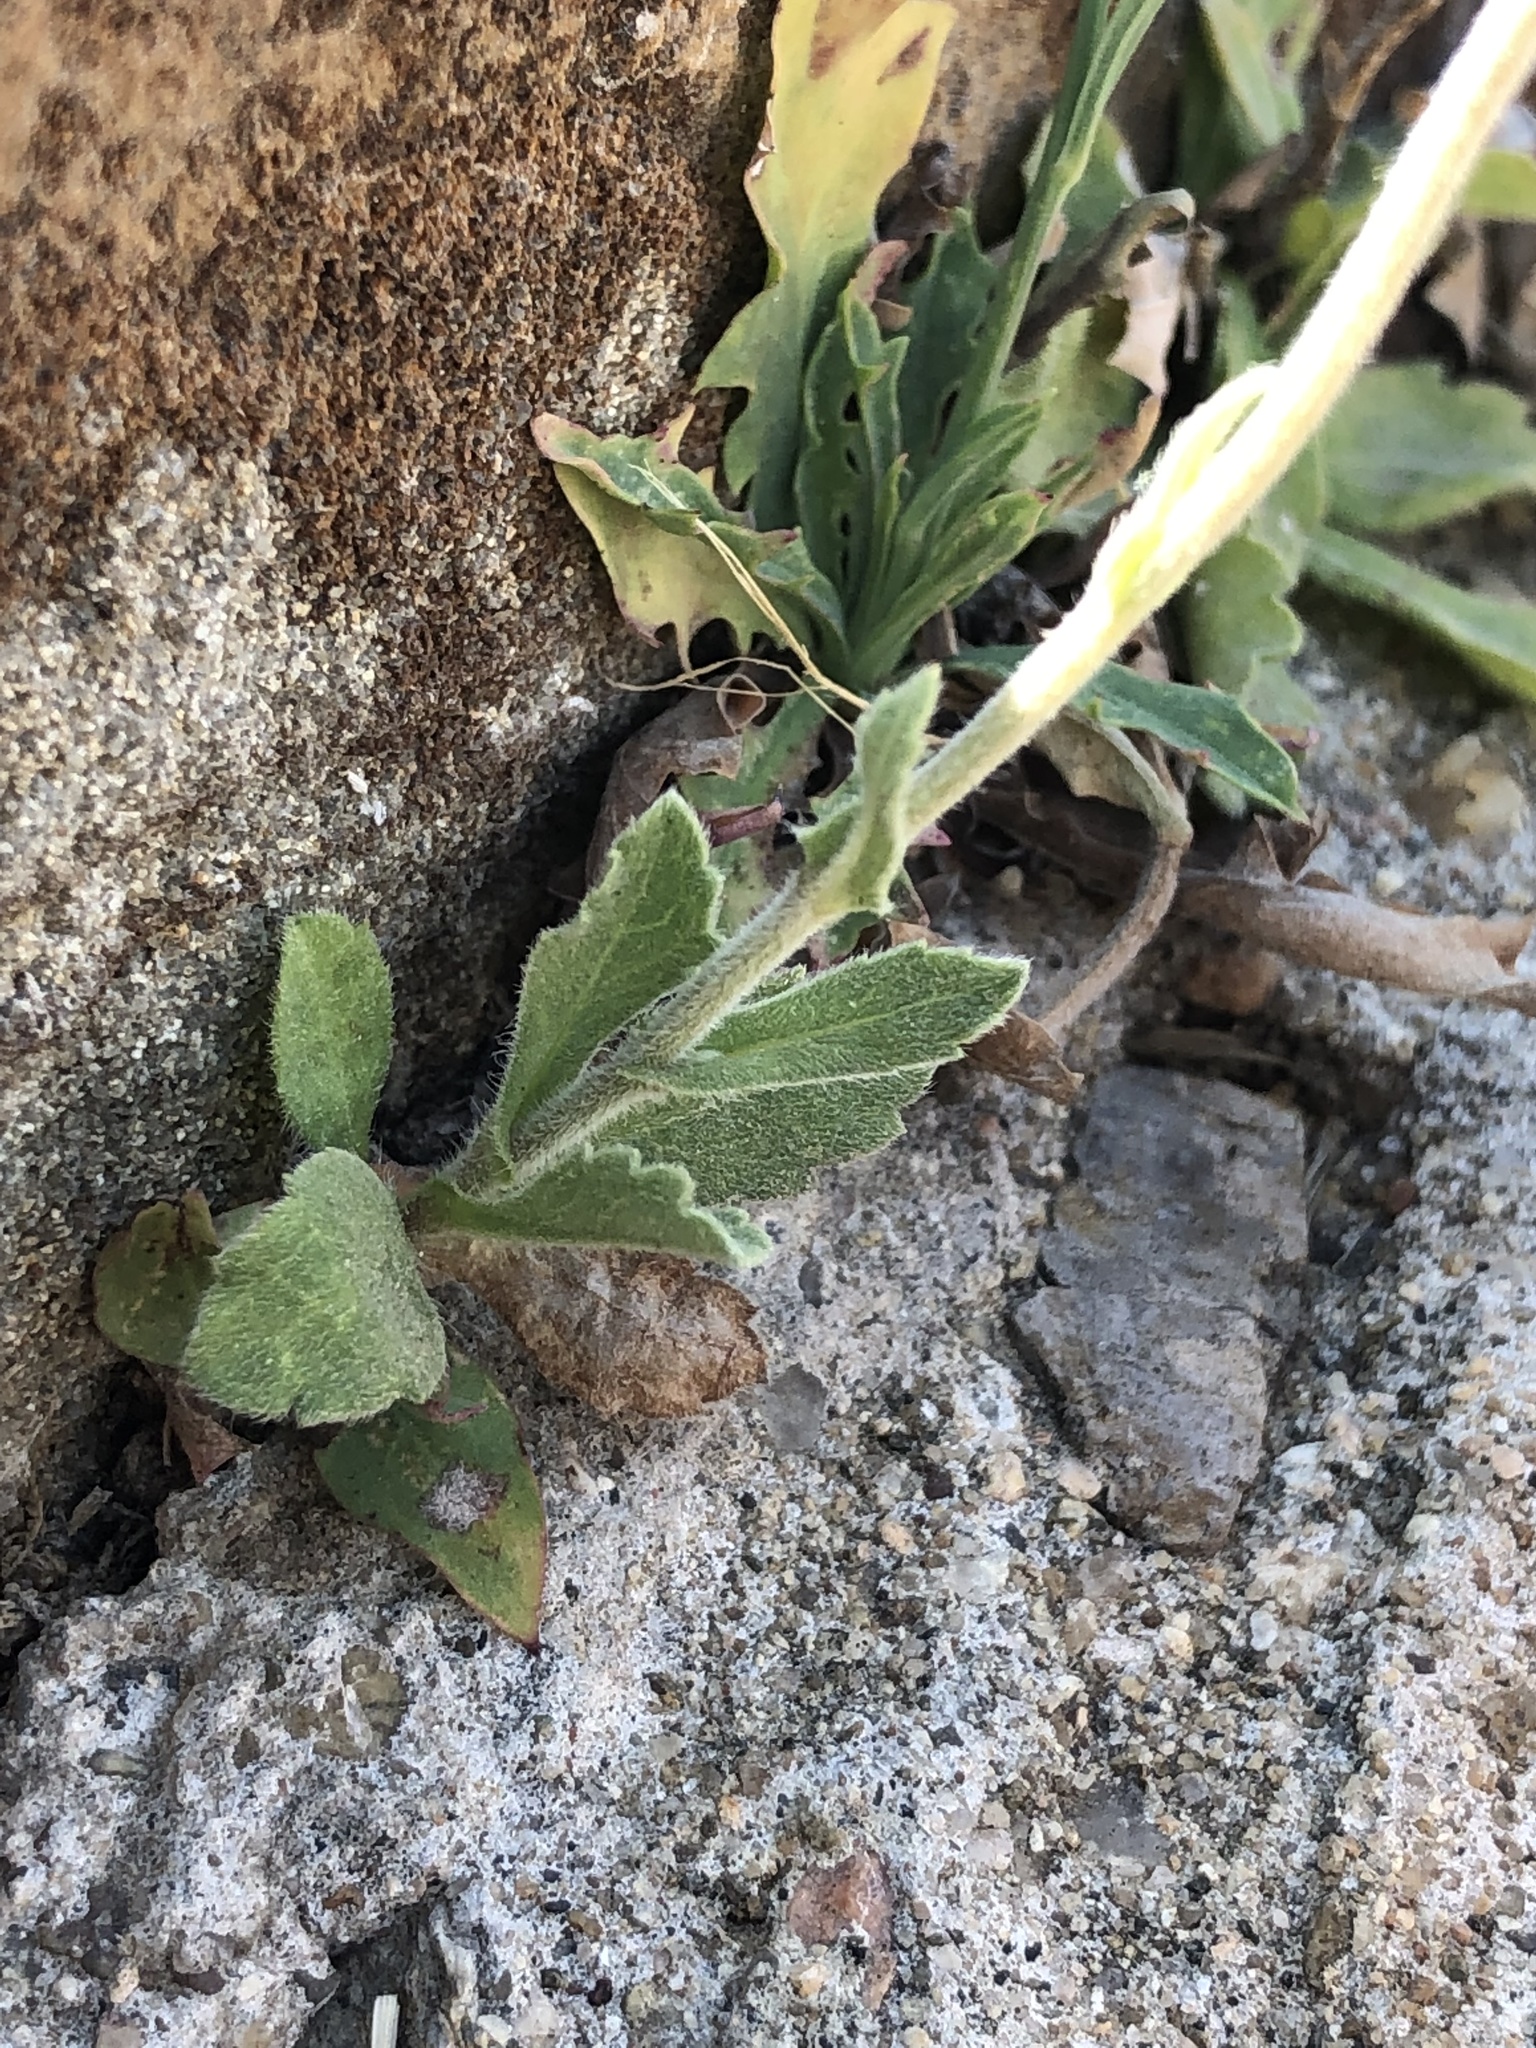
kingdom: Plantae
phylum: Tracheophyta
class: Magnoliopsida
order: Asterales
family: Asteraceae
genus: Erigeron
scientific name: Erigeron longipes
